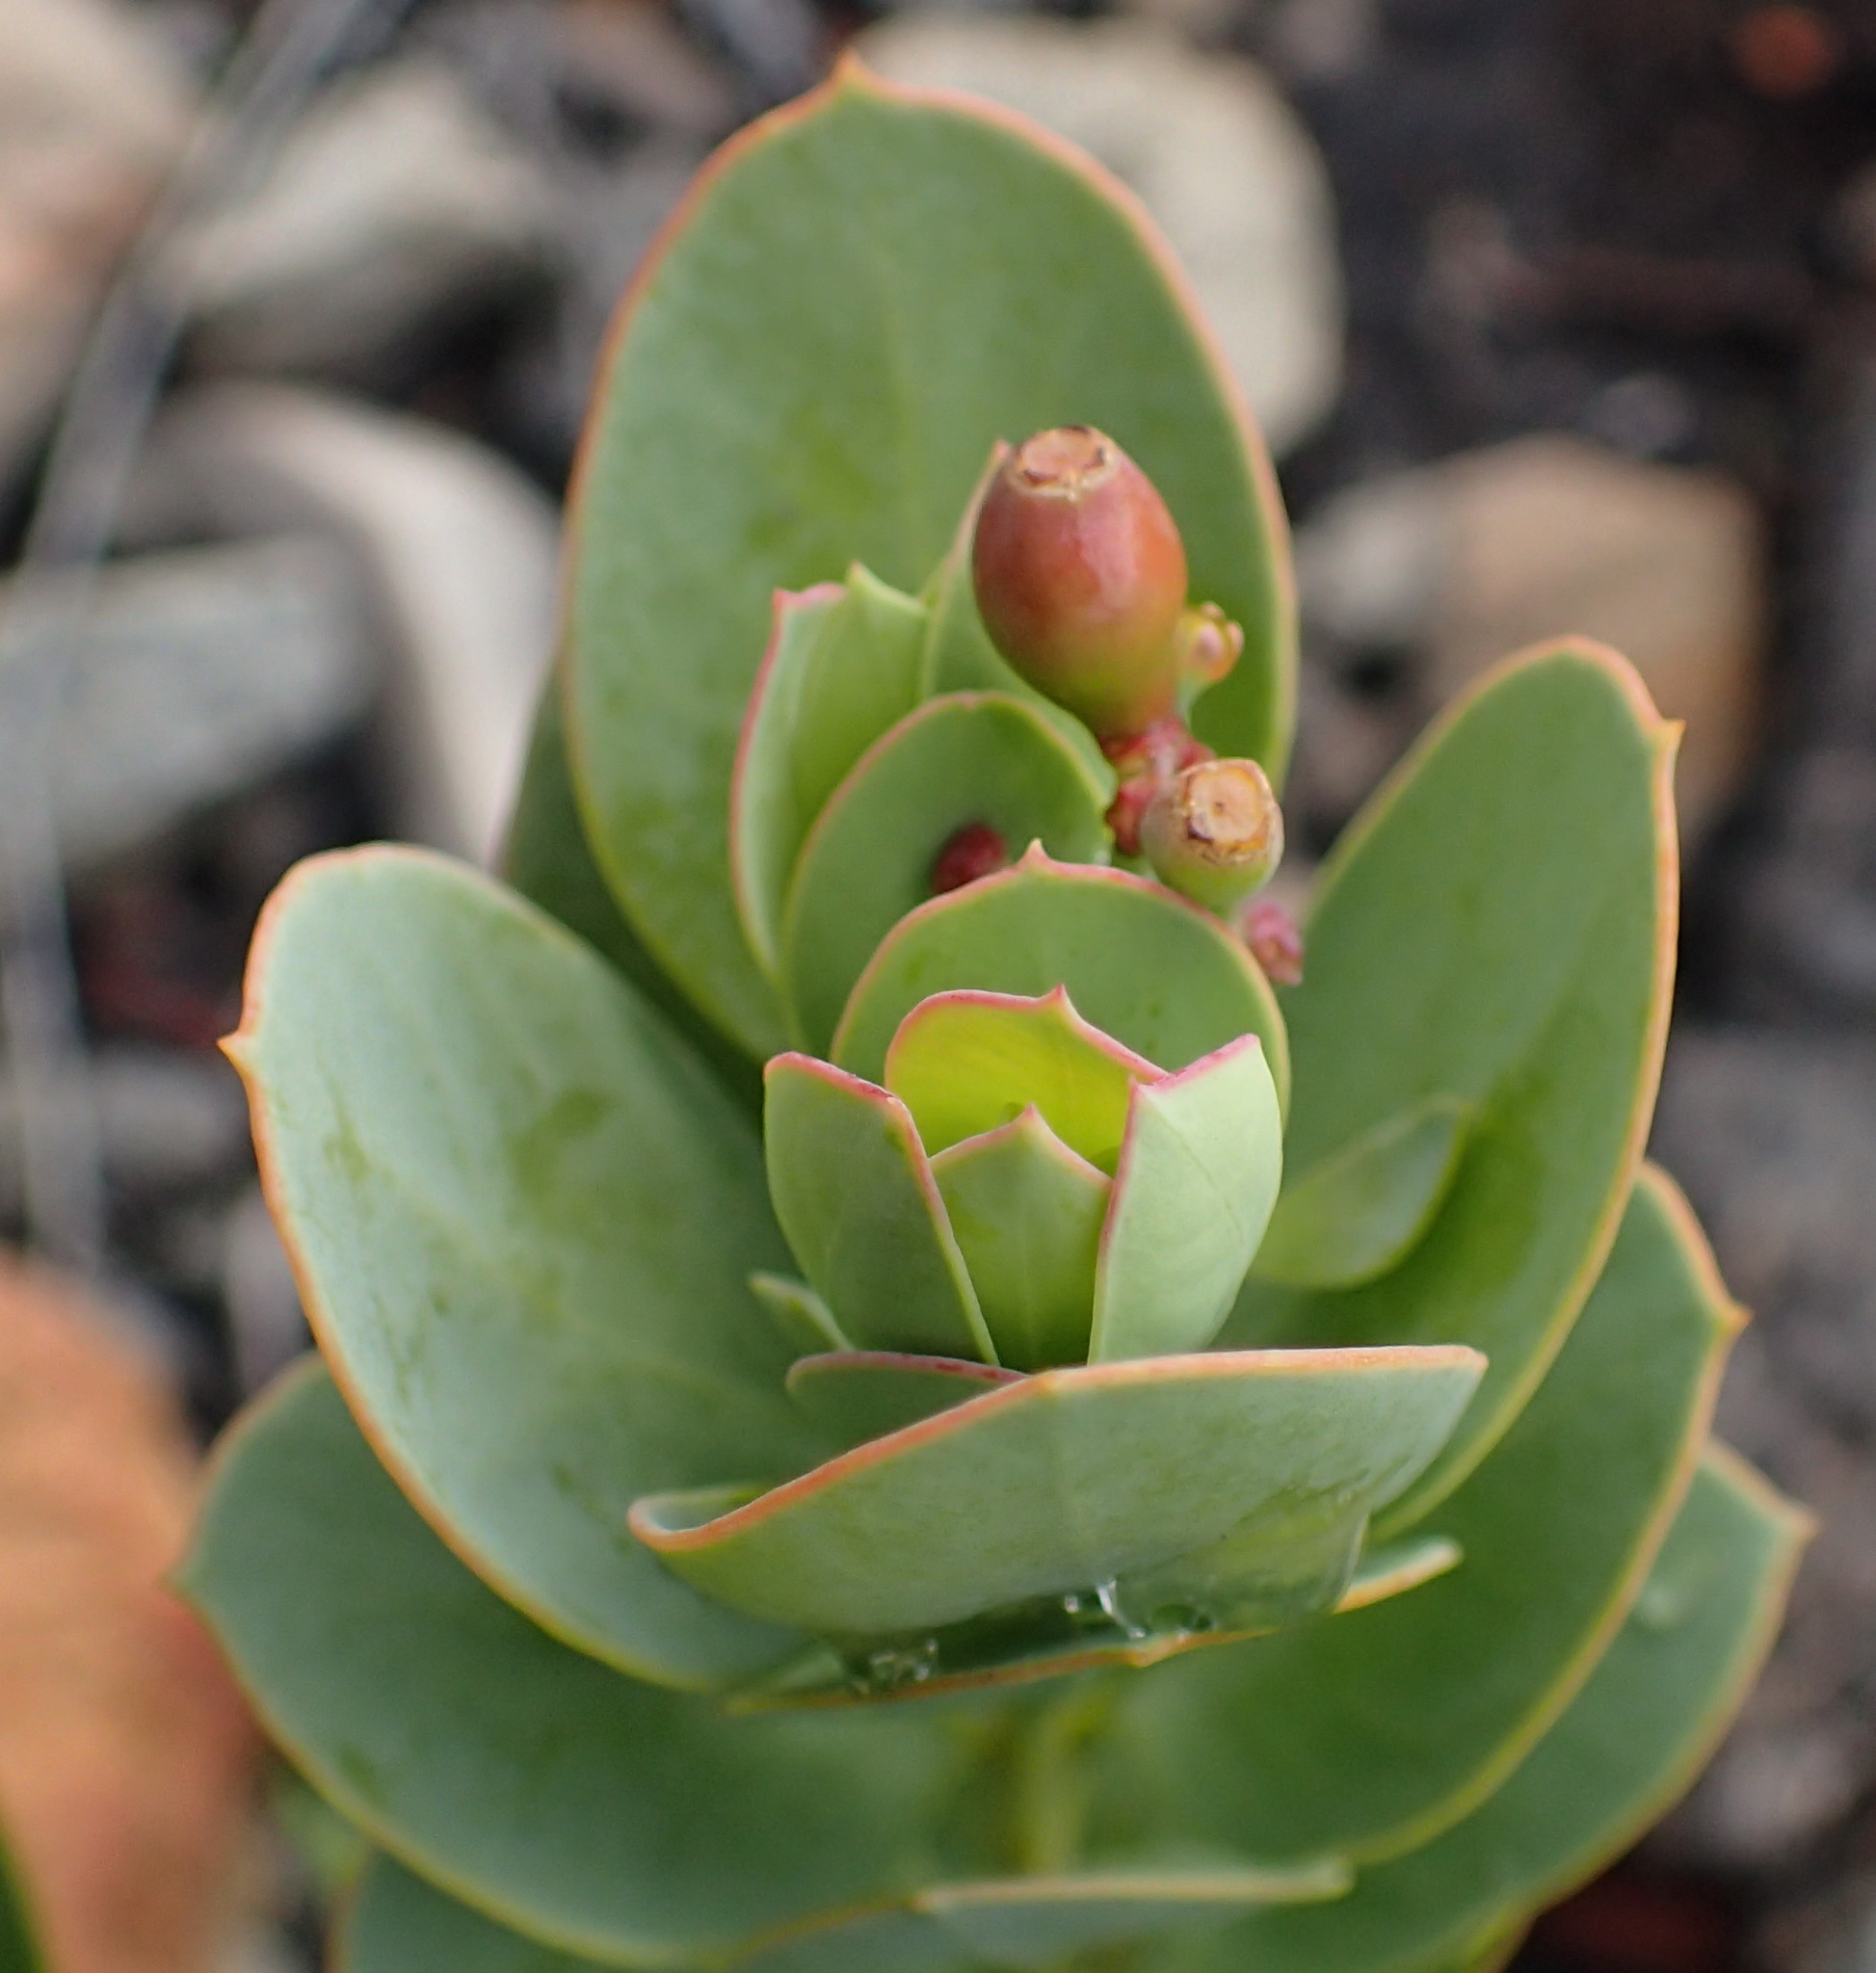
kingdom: Plantae
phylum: Tracheophyta
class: Magnoliopsida
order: Santalales
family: Santalaceae
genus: Osyris
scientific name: Osyris compressa
